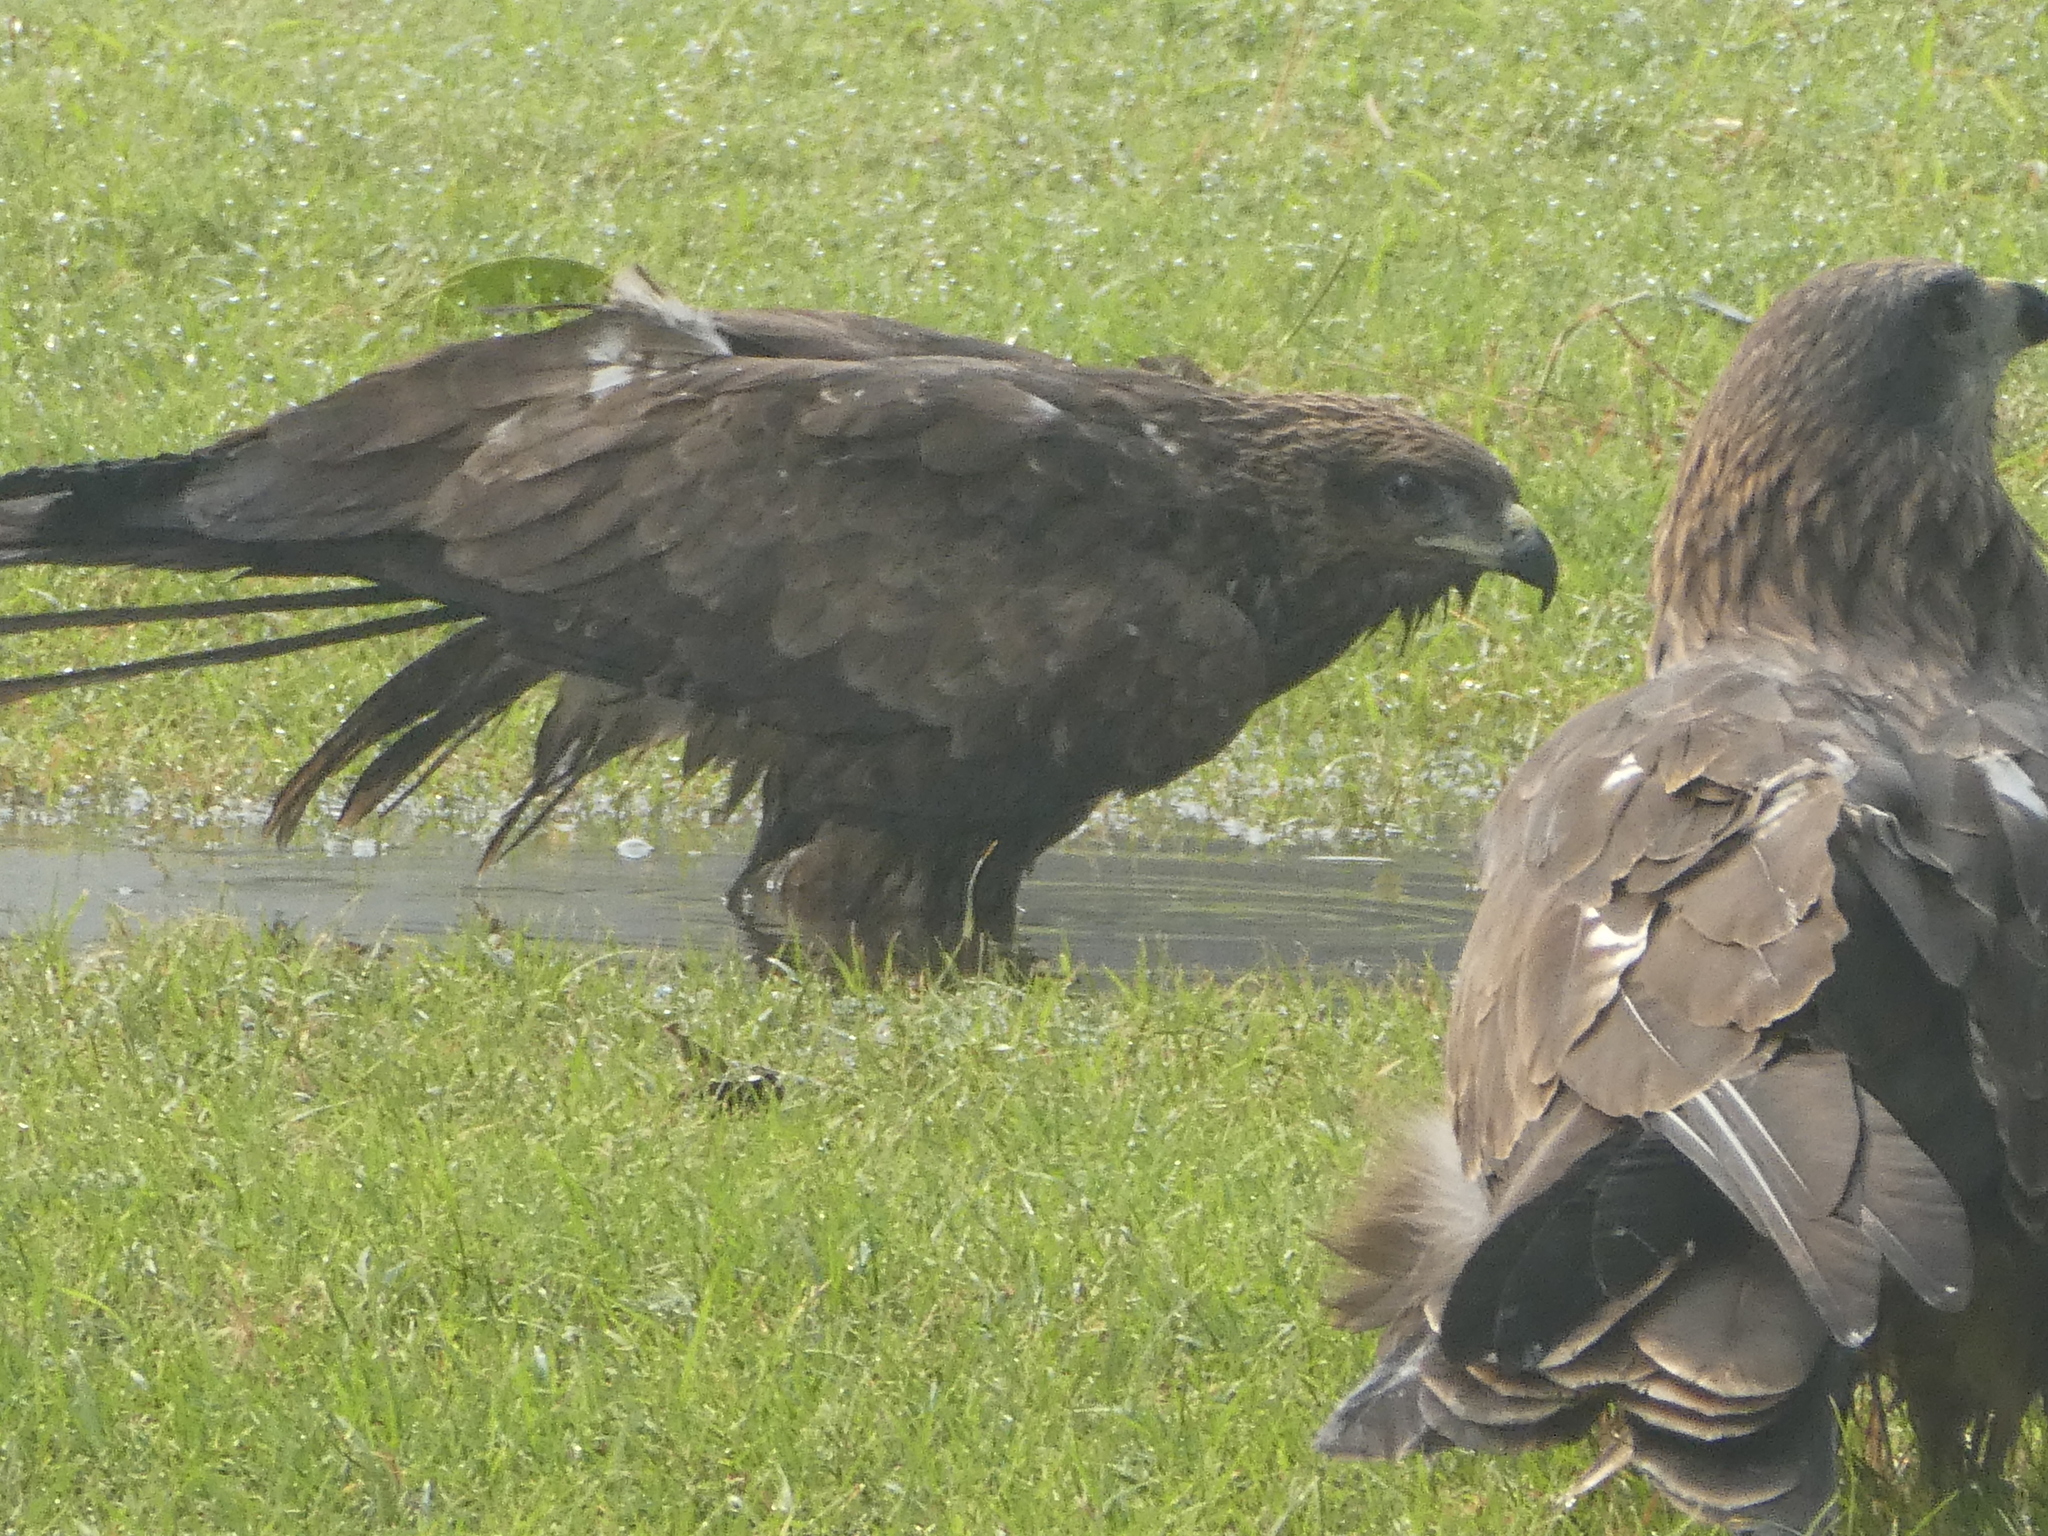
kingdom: Animalia
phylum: Chordata
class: Aves
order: Accipitriformes
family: Accipitridae
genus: Milvus
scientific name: Milvus migrans
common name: Black kite
